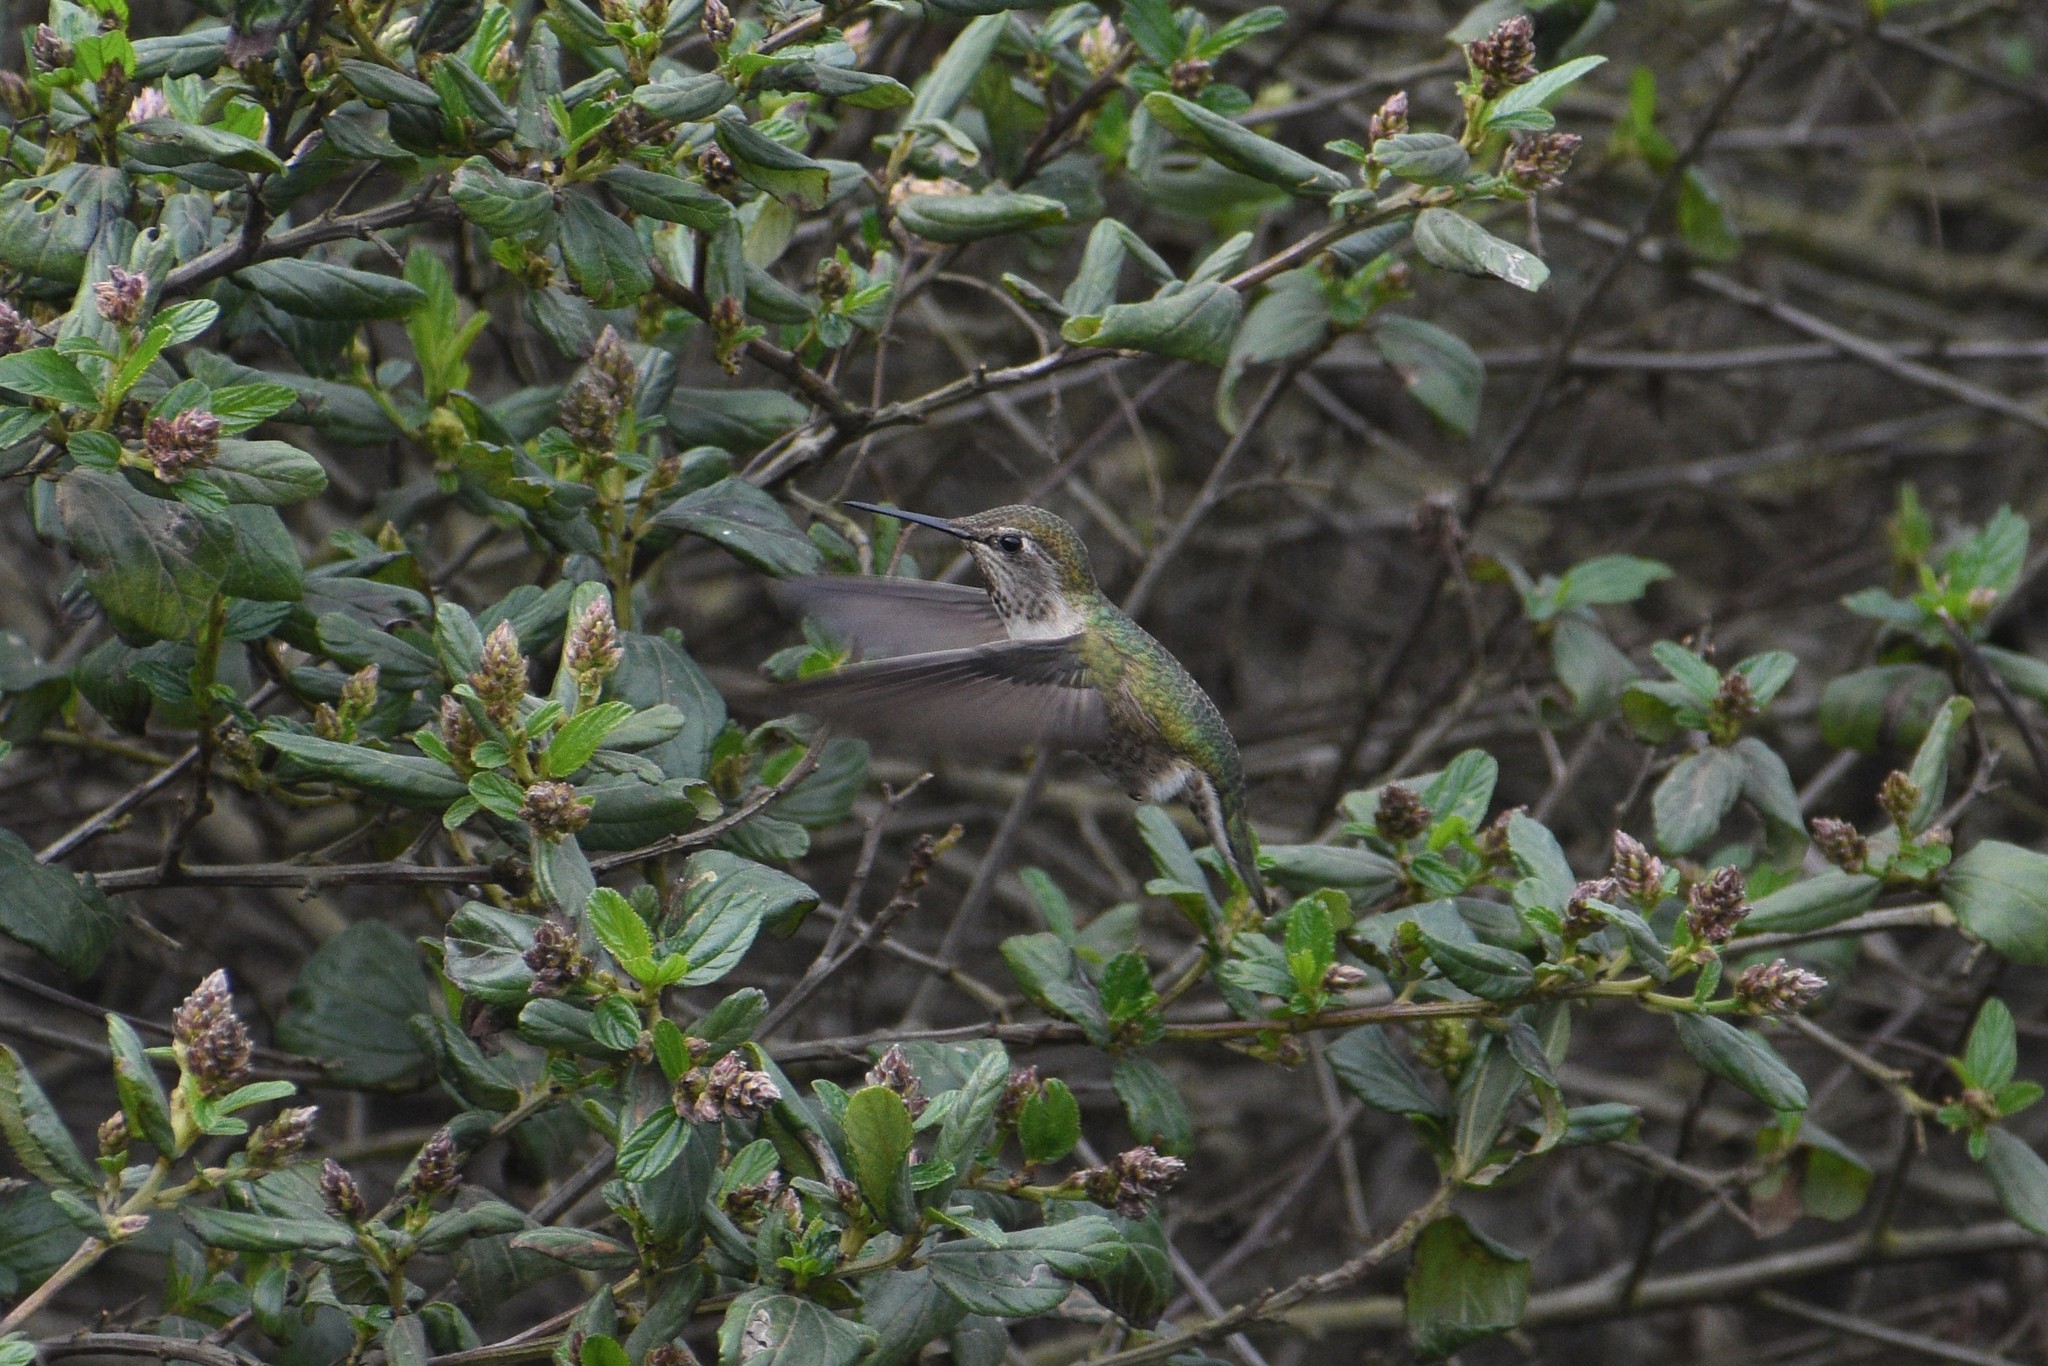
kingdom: Animalia
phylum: Chordata
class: Aves
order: Apodiformes
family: Trochilidae
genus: Calypte
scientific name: Calypte anna
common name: Anna's hummingbird
